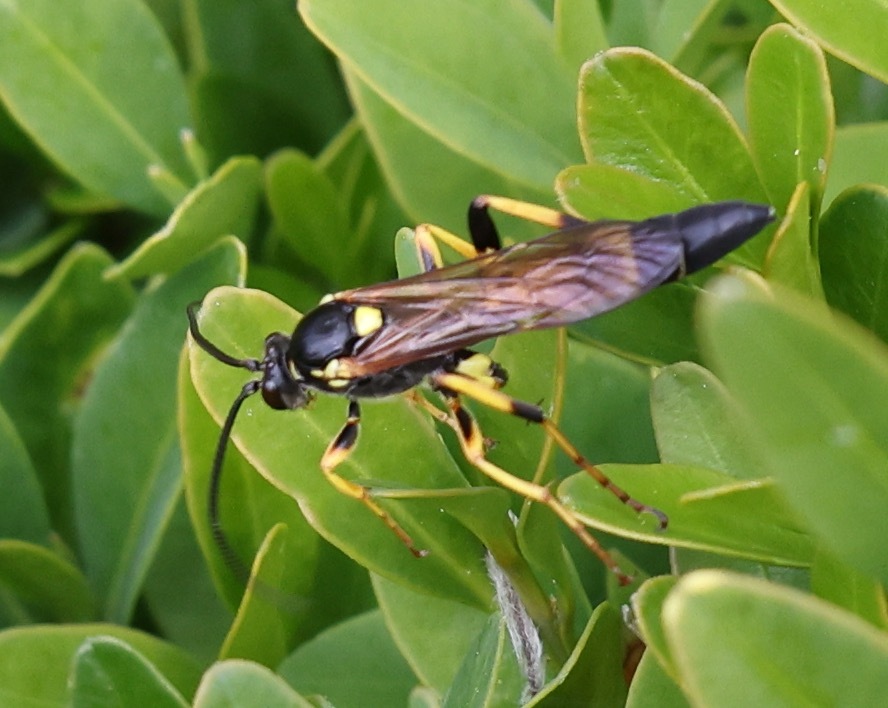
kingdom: Animalia
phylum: Arthropoda
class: Insecta
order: Hymenoptera
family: Ichneumonidae
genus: Ichneumon
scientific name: Ichneumon xanthorius
